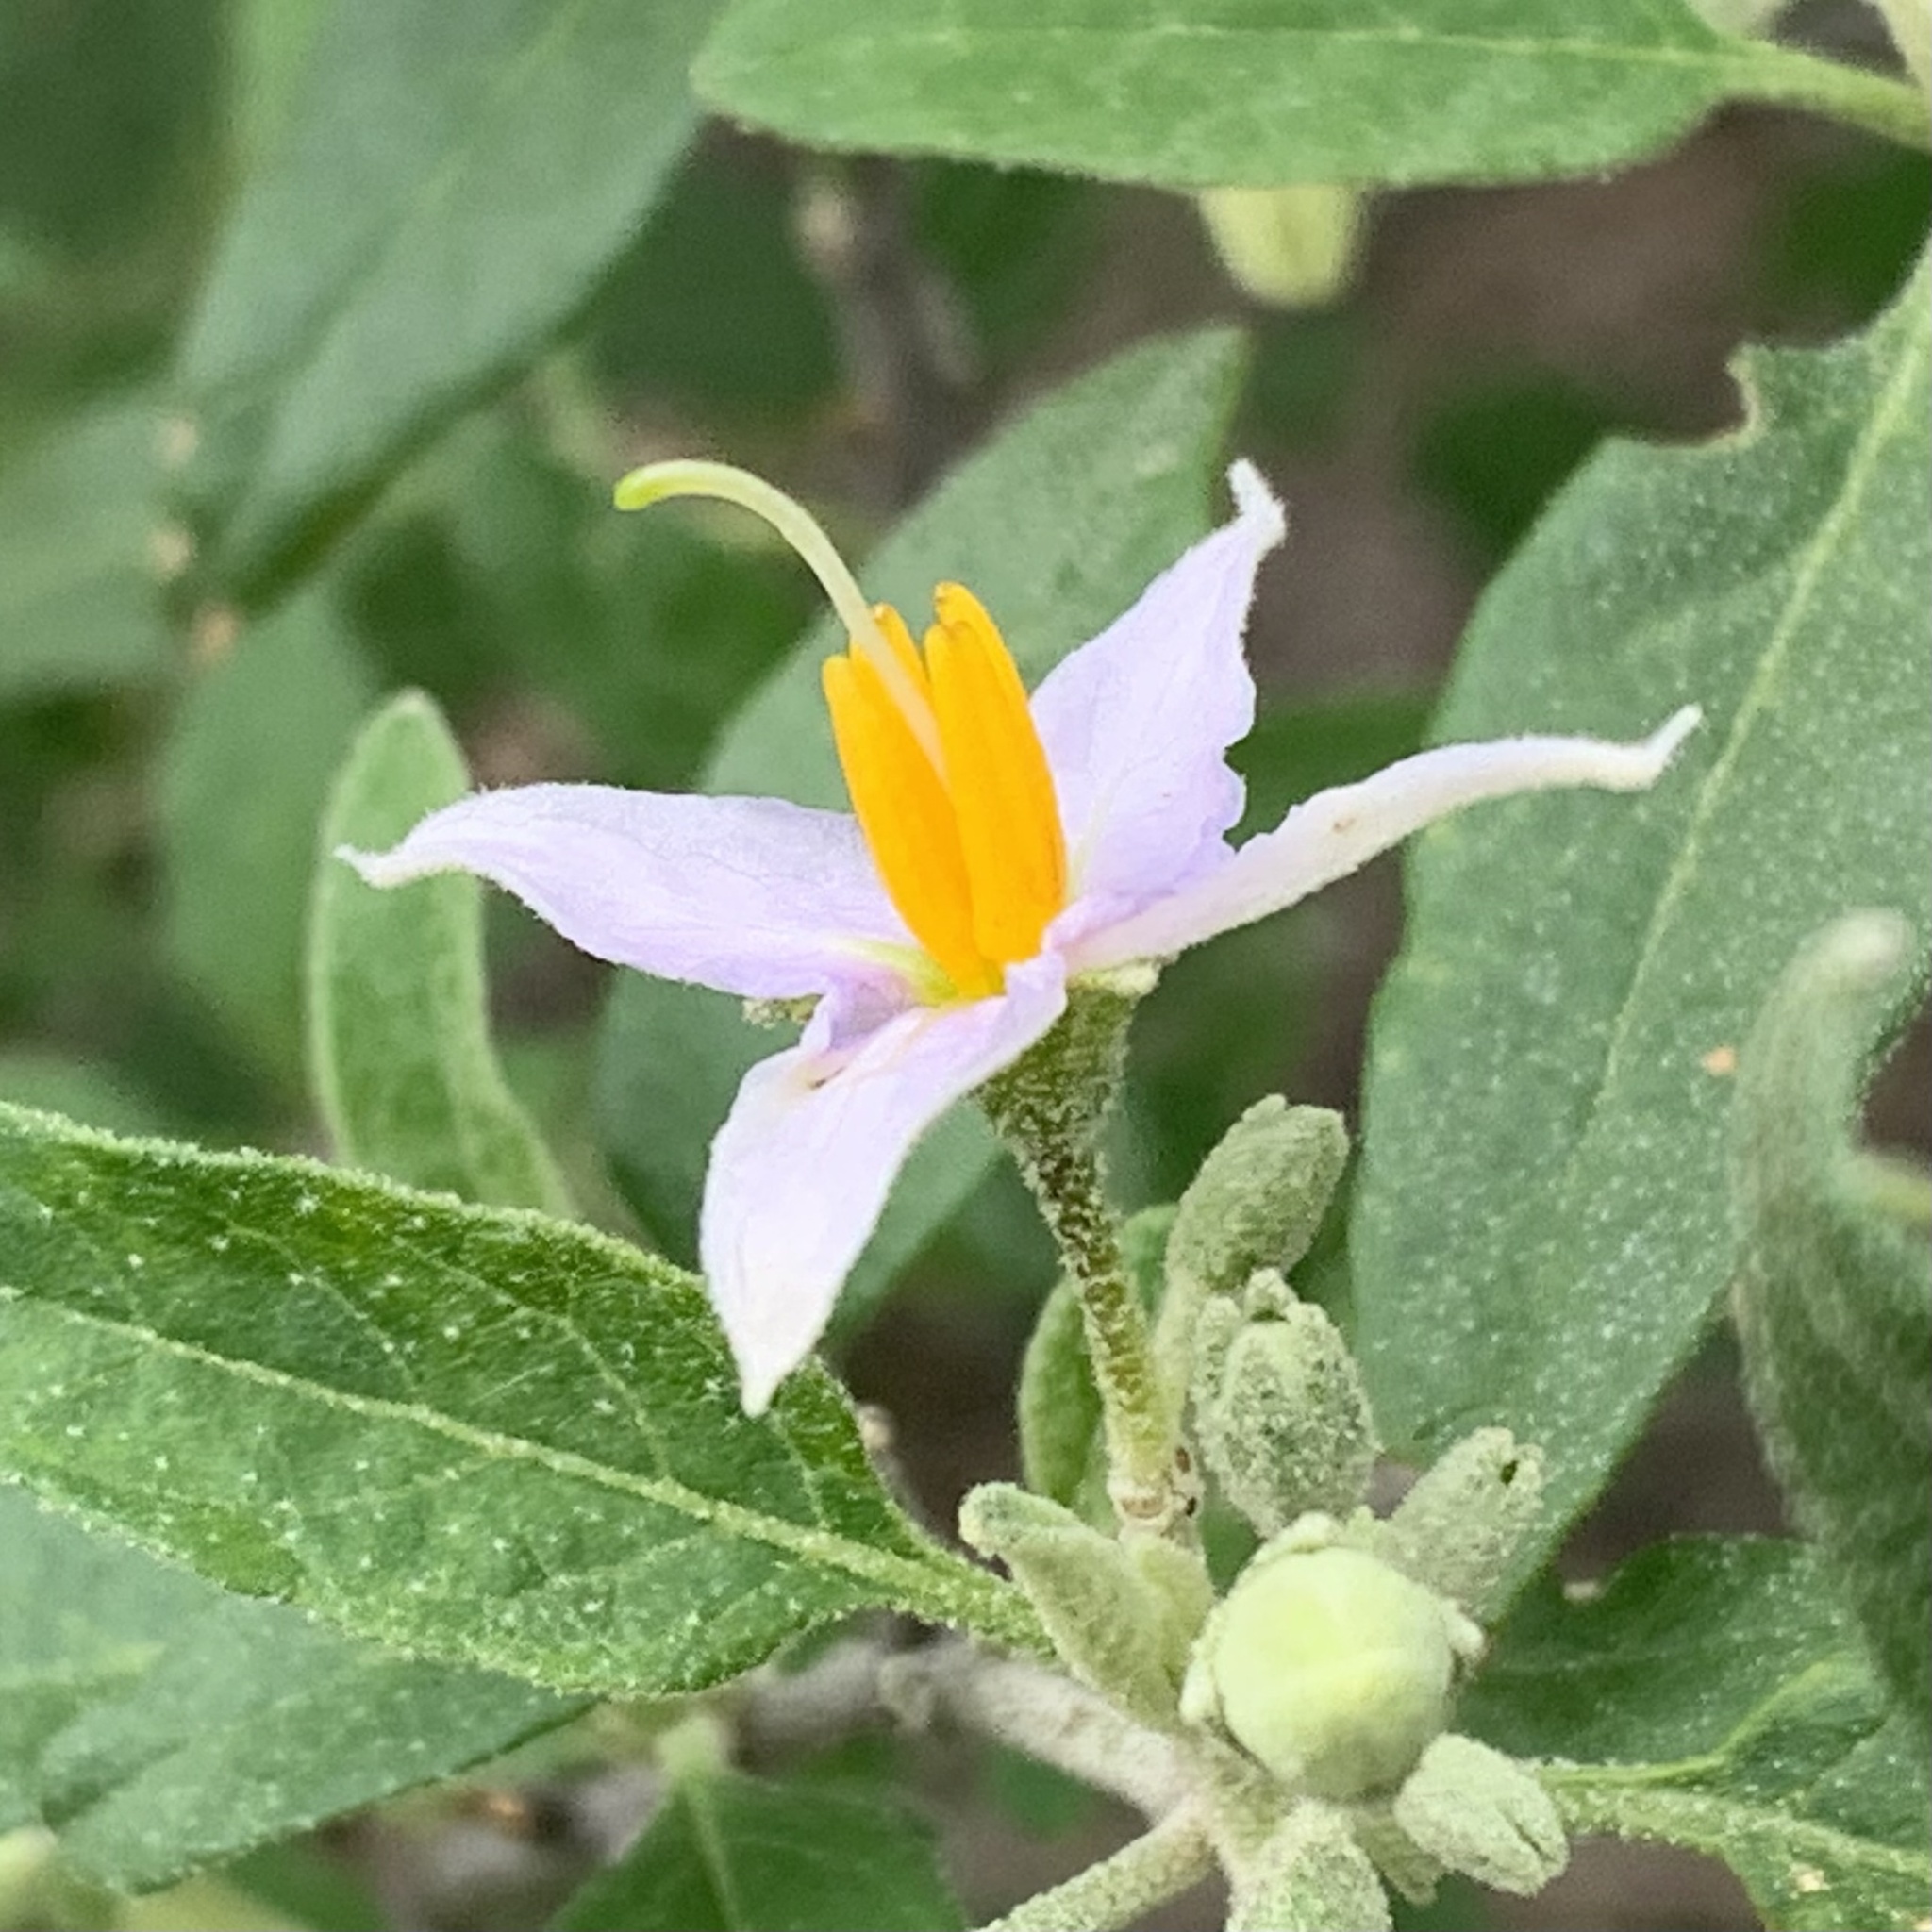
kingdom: Plantae
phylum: Tracheophyta
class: Magnoliopsida
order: Solanales
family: Solanaceae
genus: Solanum
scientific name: Solanum tettense
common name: Mozambique bitter apple
